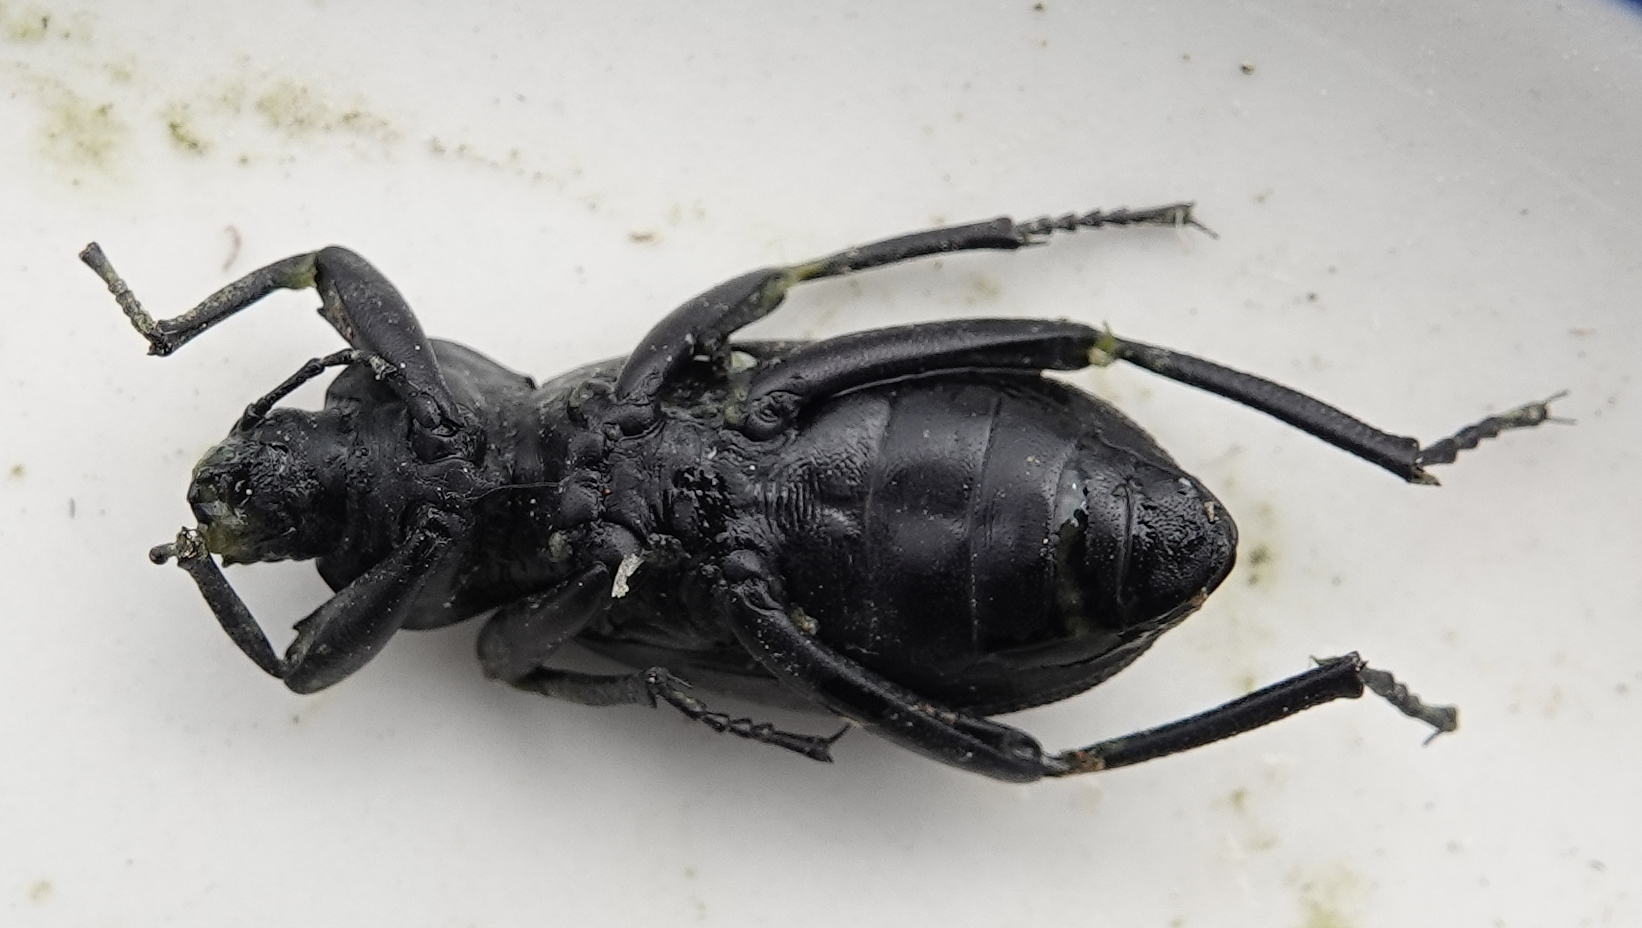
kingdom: Animalia
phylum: Arthropoda
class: Insecta
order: Coleoptera
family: Tenebrionidae
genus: Eleodes
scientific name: Eleodes obscura
